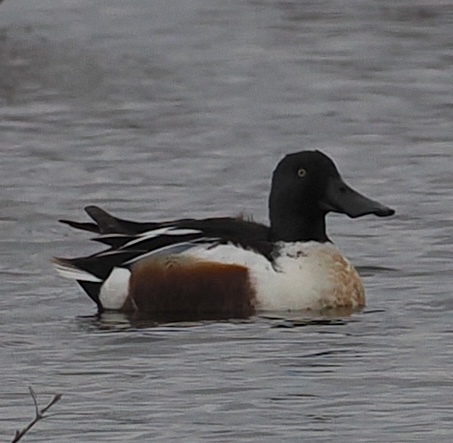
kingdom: Animalia
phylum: Chordata
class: Aves
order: Anseriformes
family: Anatidae
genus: Spatula
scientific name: Spatula clypeata
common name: Northern shoveler
